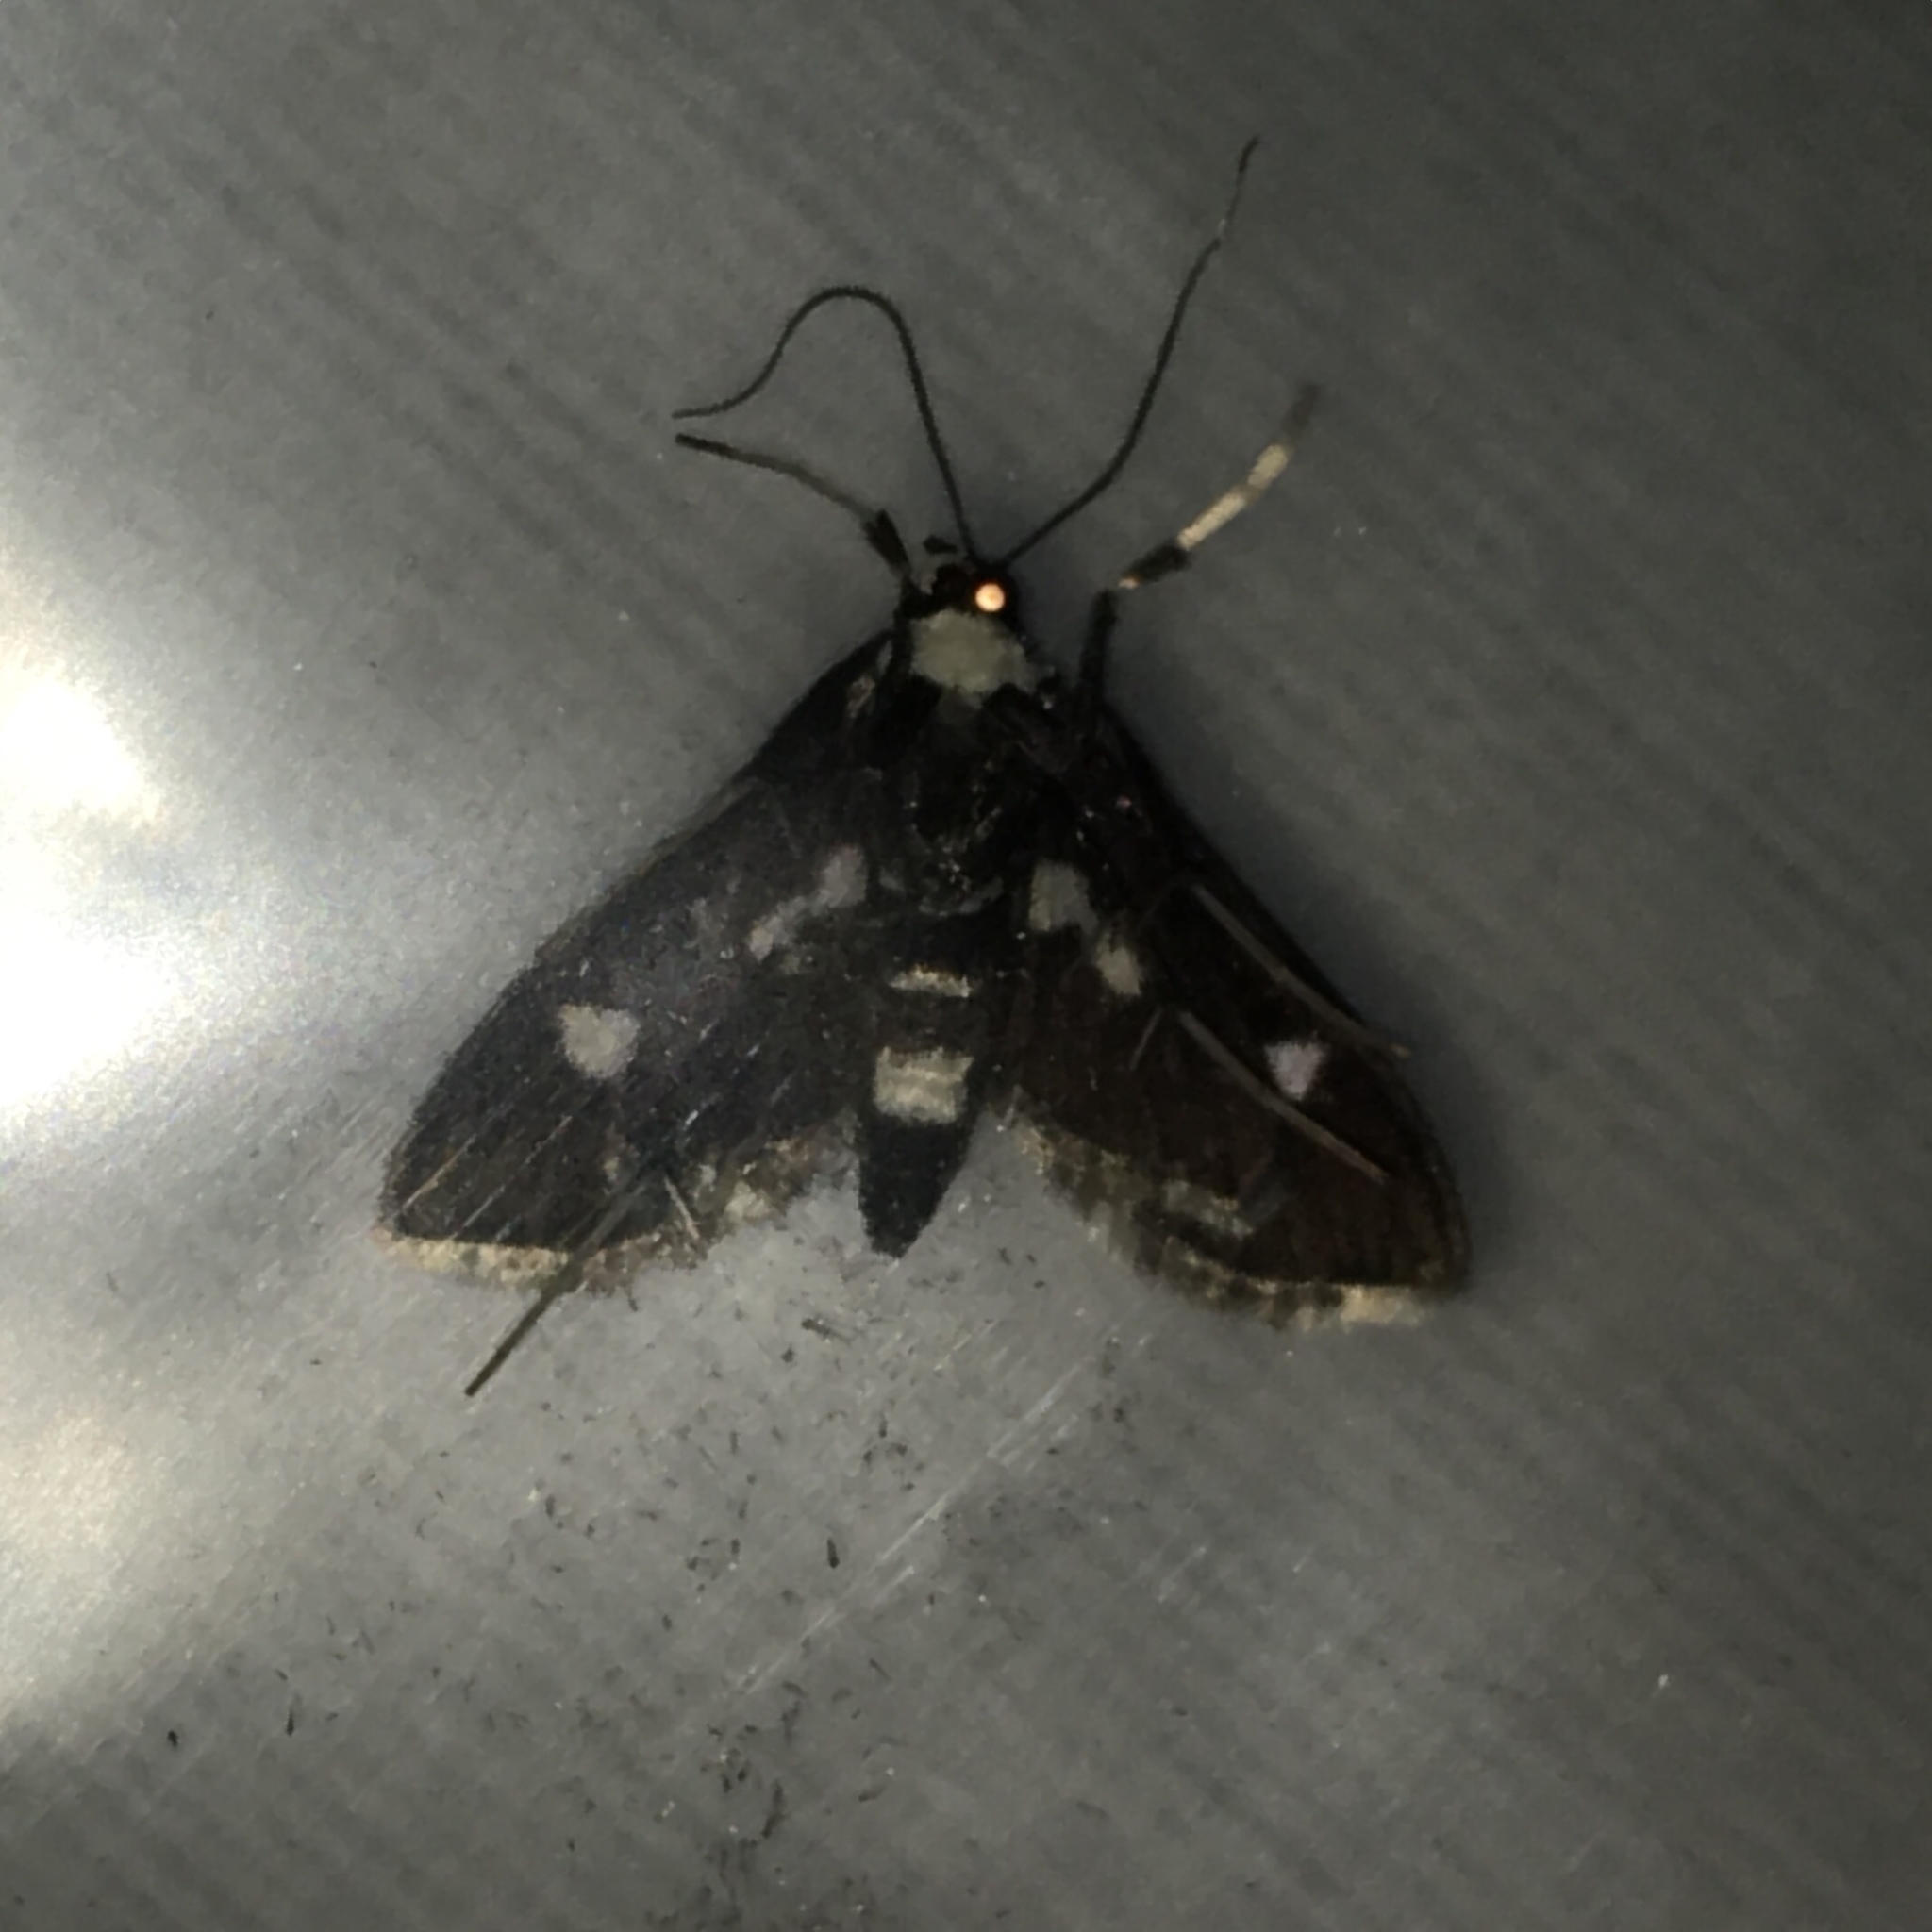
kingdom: Animalia
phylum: Arthropoda
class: Insecta
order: Lepidoptera
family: Crambidae
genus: Desmia
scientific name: Desmia funeralis
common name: Grape leaf folder moth
